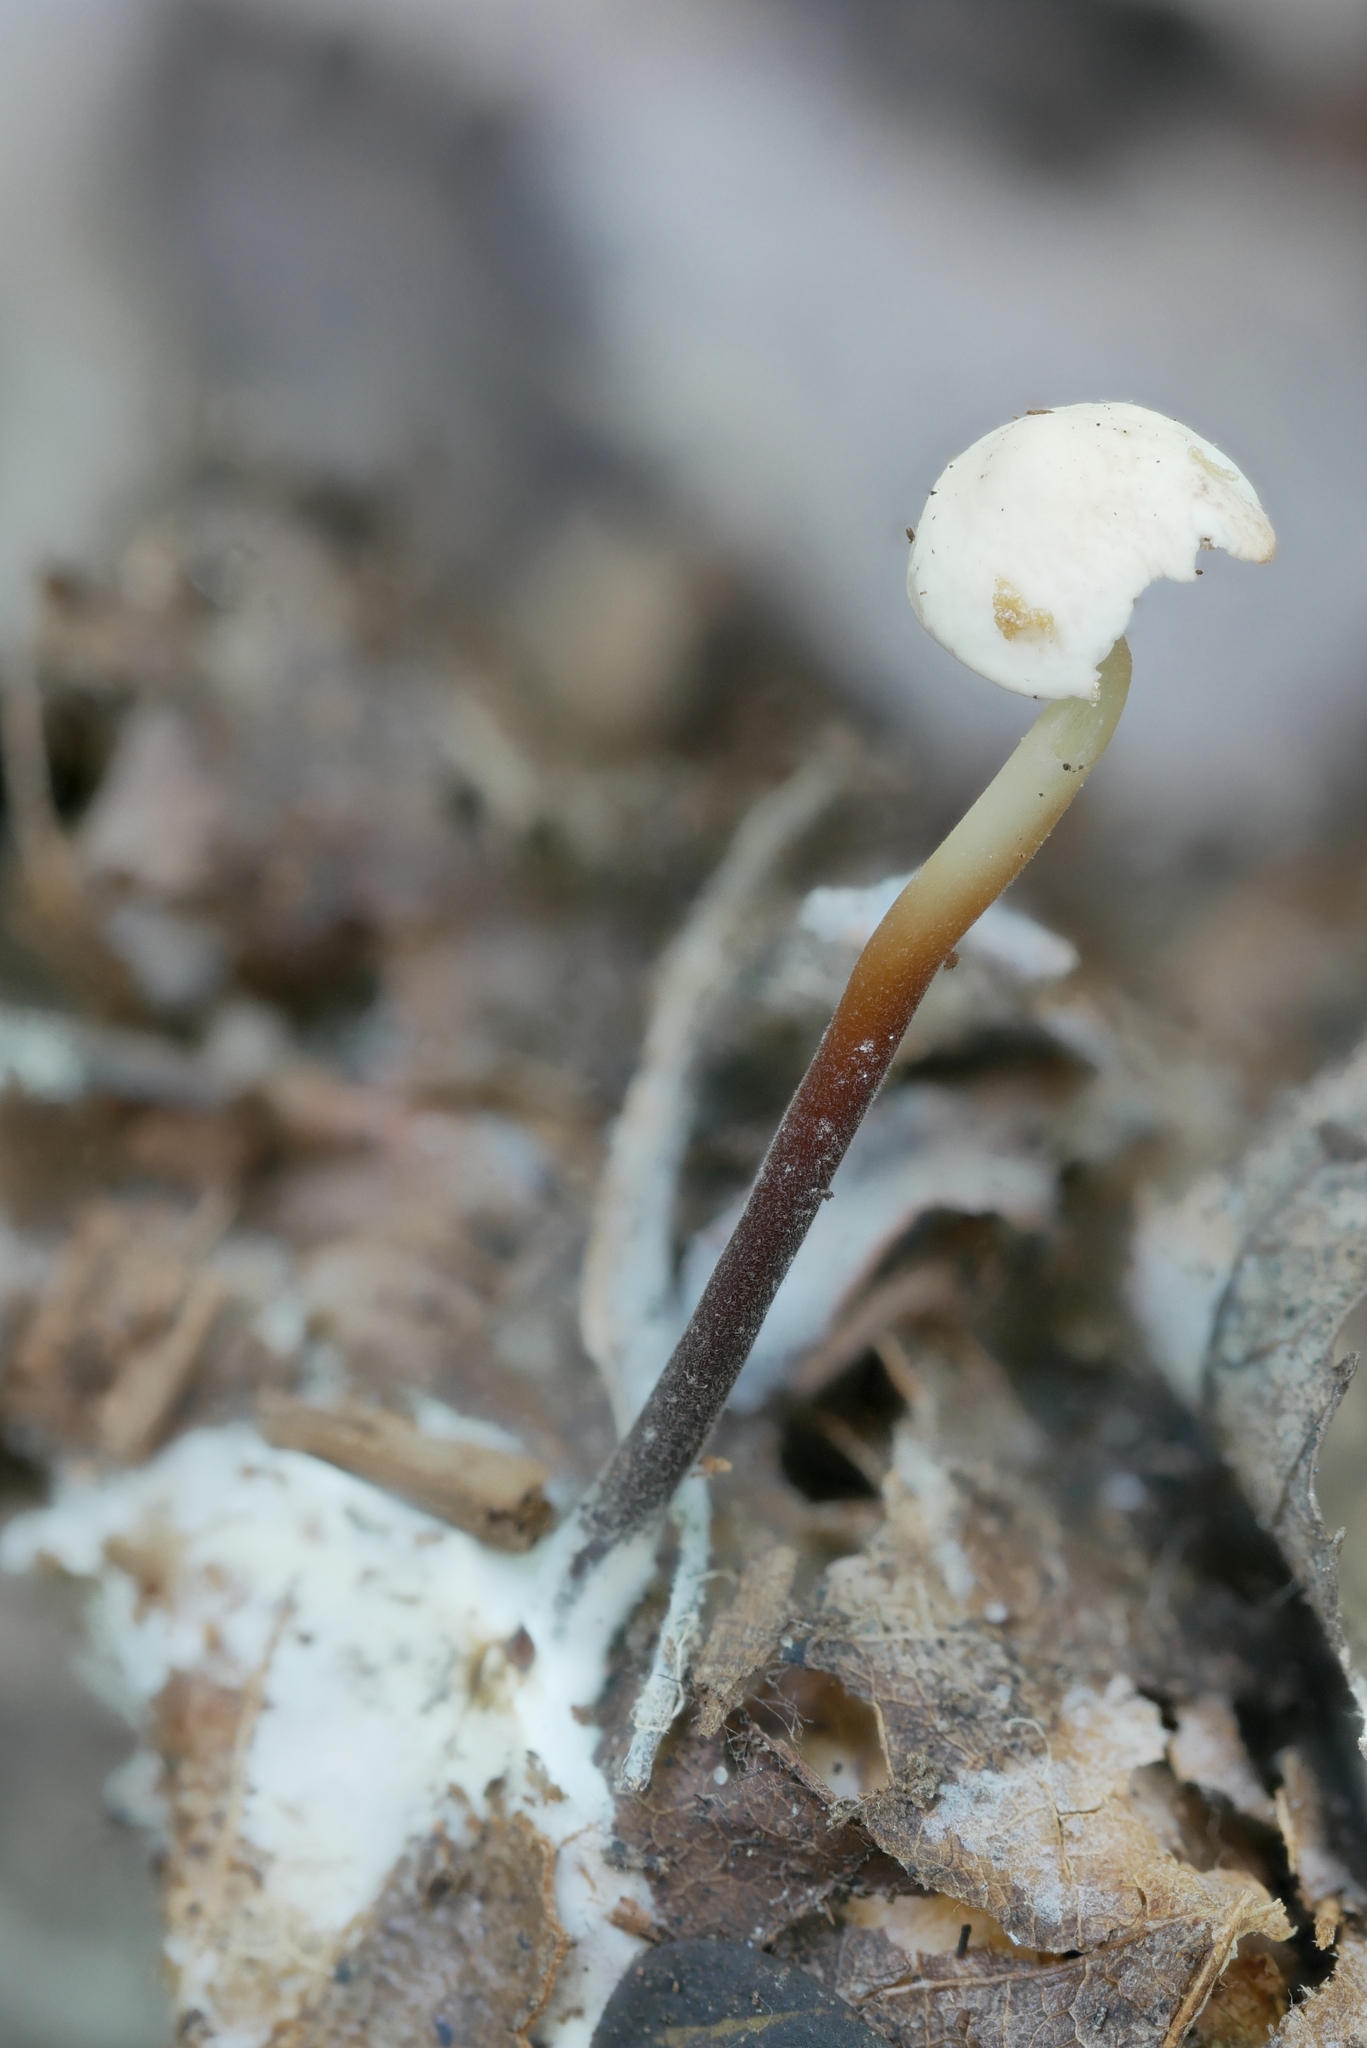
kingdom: Fungi
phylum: Basidiomycota
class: Agaricomycetes
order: Agaricales
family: Marasmiaceae
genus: Marasmius
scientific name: Marasmius delectans
